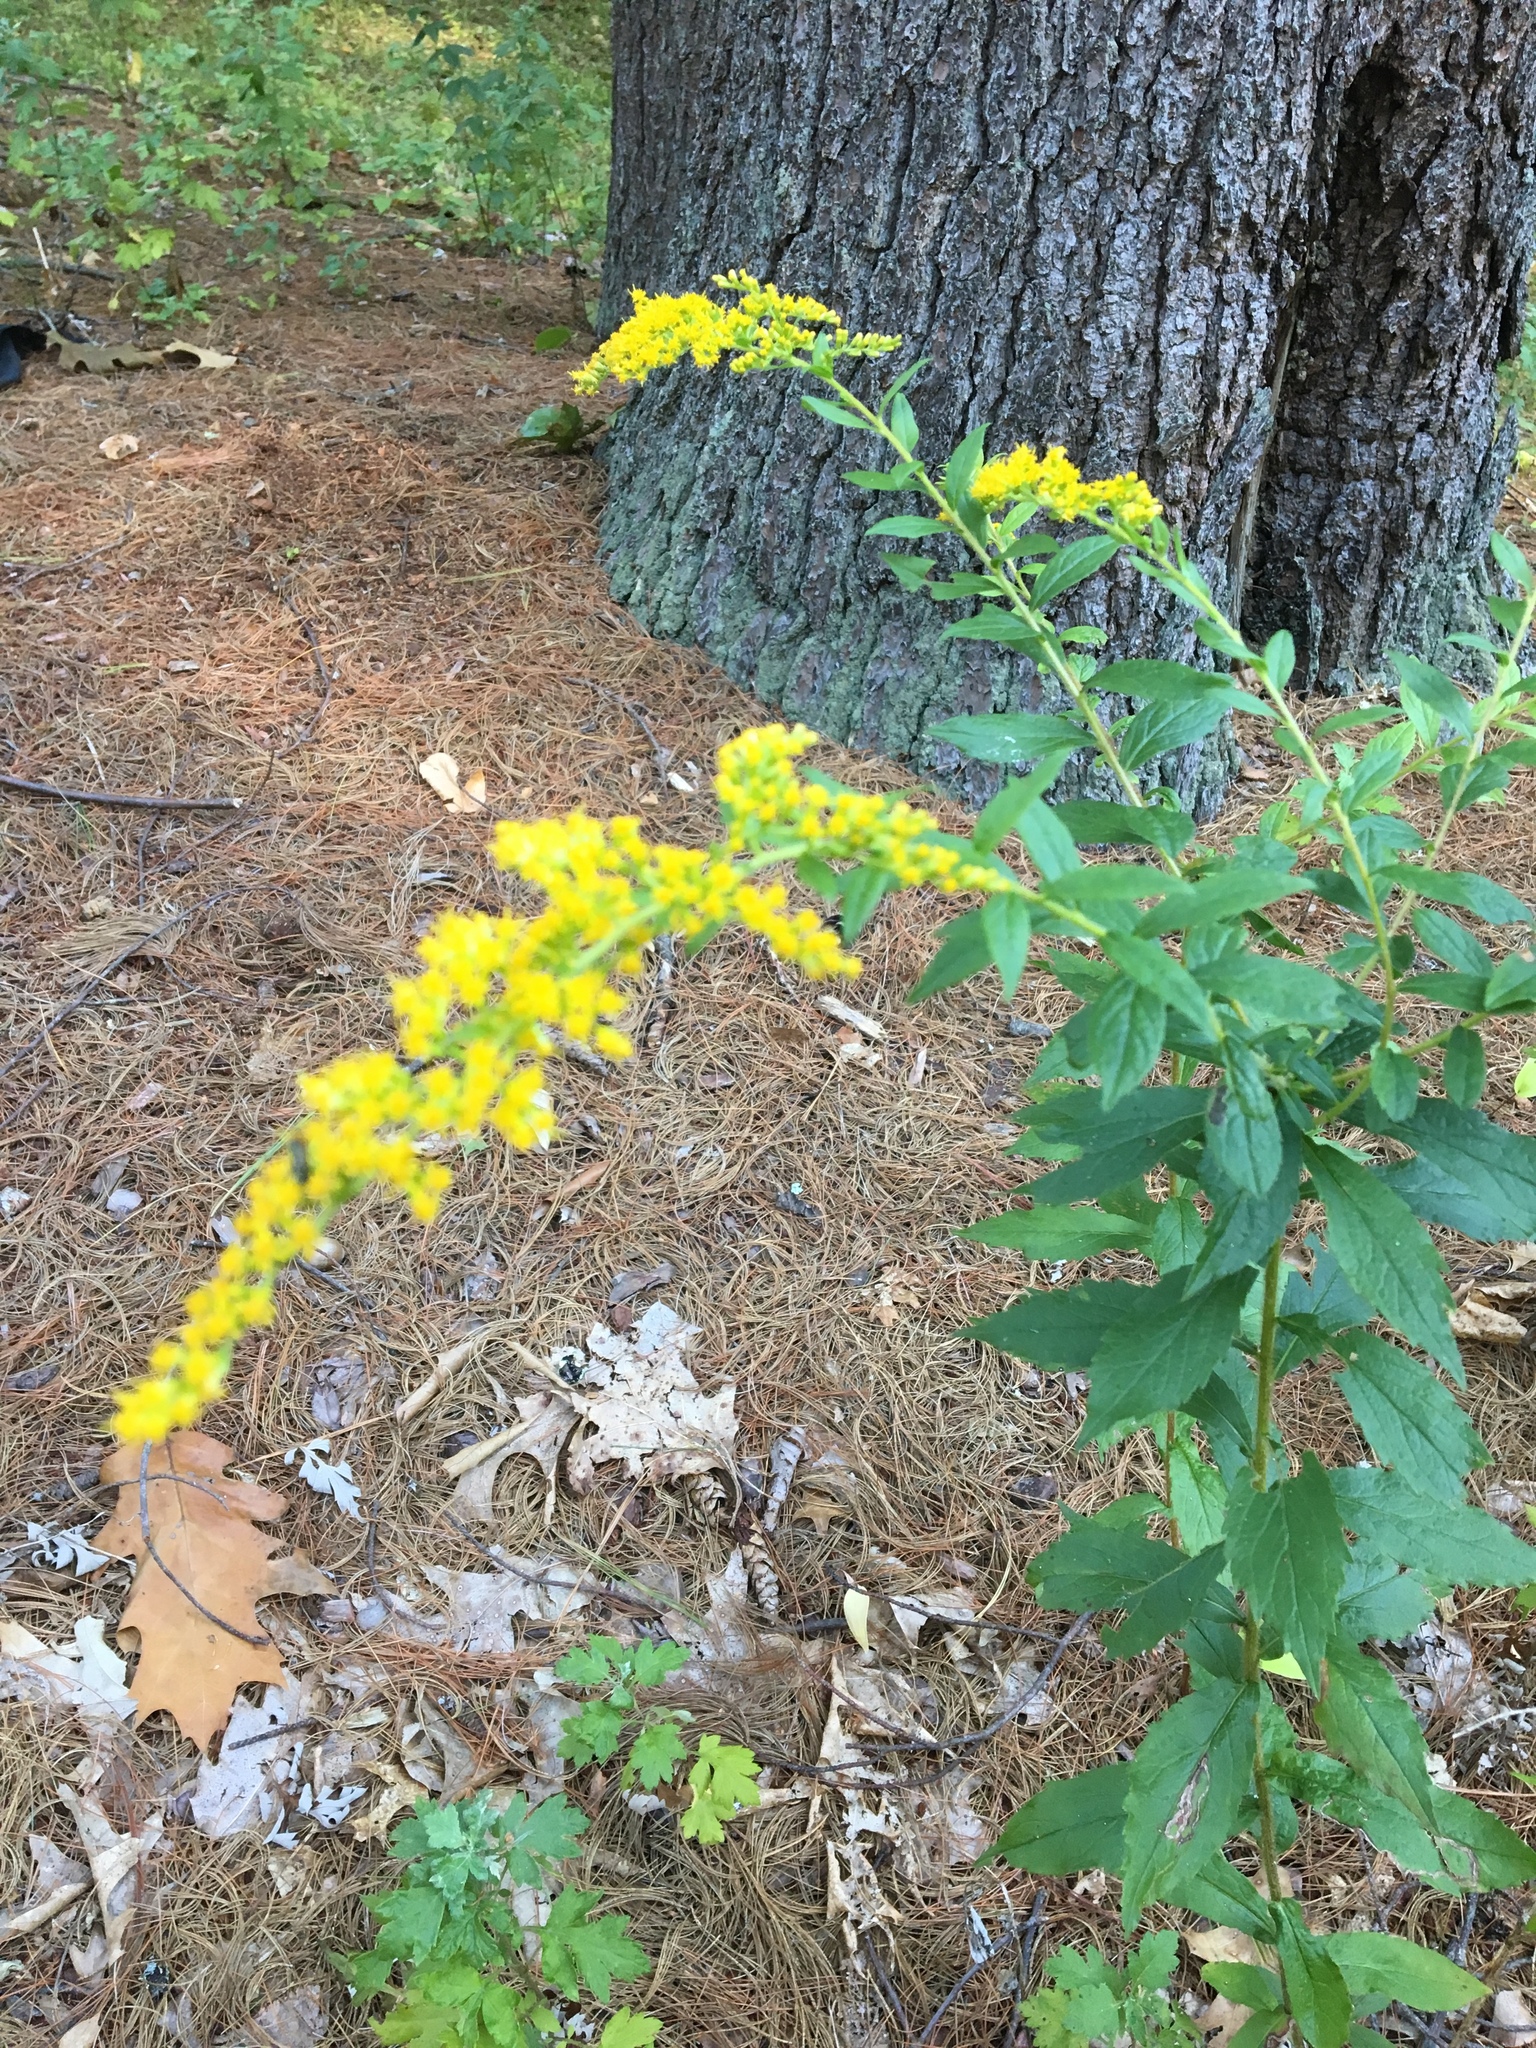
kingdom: Plantae
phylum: Tracheophyta
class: Magnoliopsida
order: Asterales
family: Asteraceae
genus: Solidago
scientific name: Solidago rugosa
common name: Rough-stemmed goldenrod
